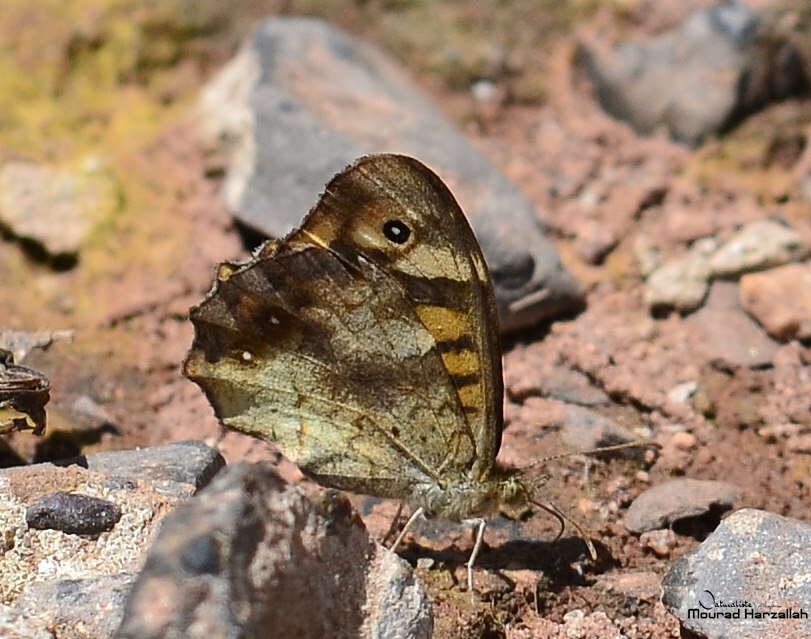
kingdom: Animalia
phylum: Arthropoda
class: Insecta
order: Lepidoptera
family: Nymphalidae
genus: Pararge
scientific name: Pararge aegeria
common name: Speckled wood
